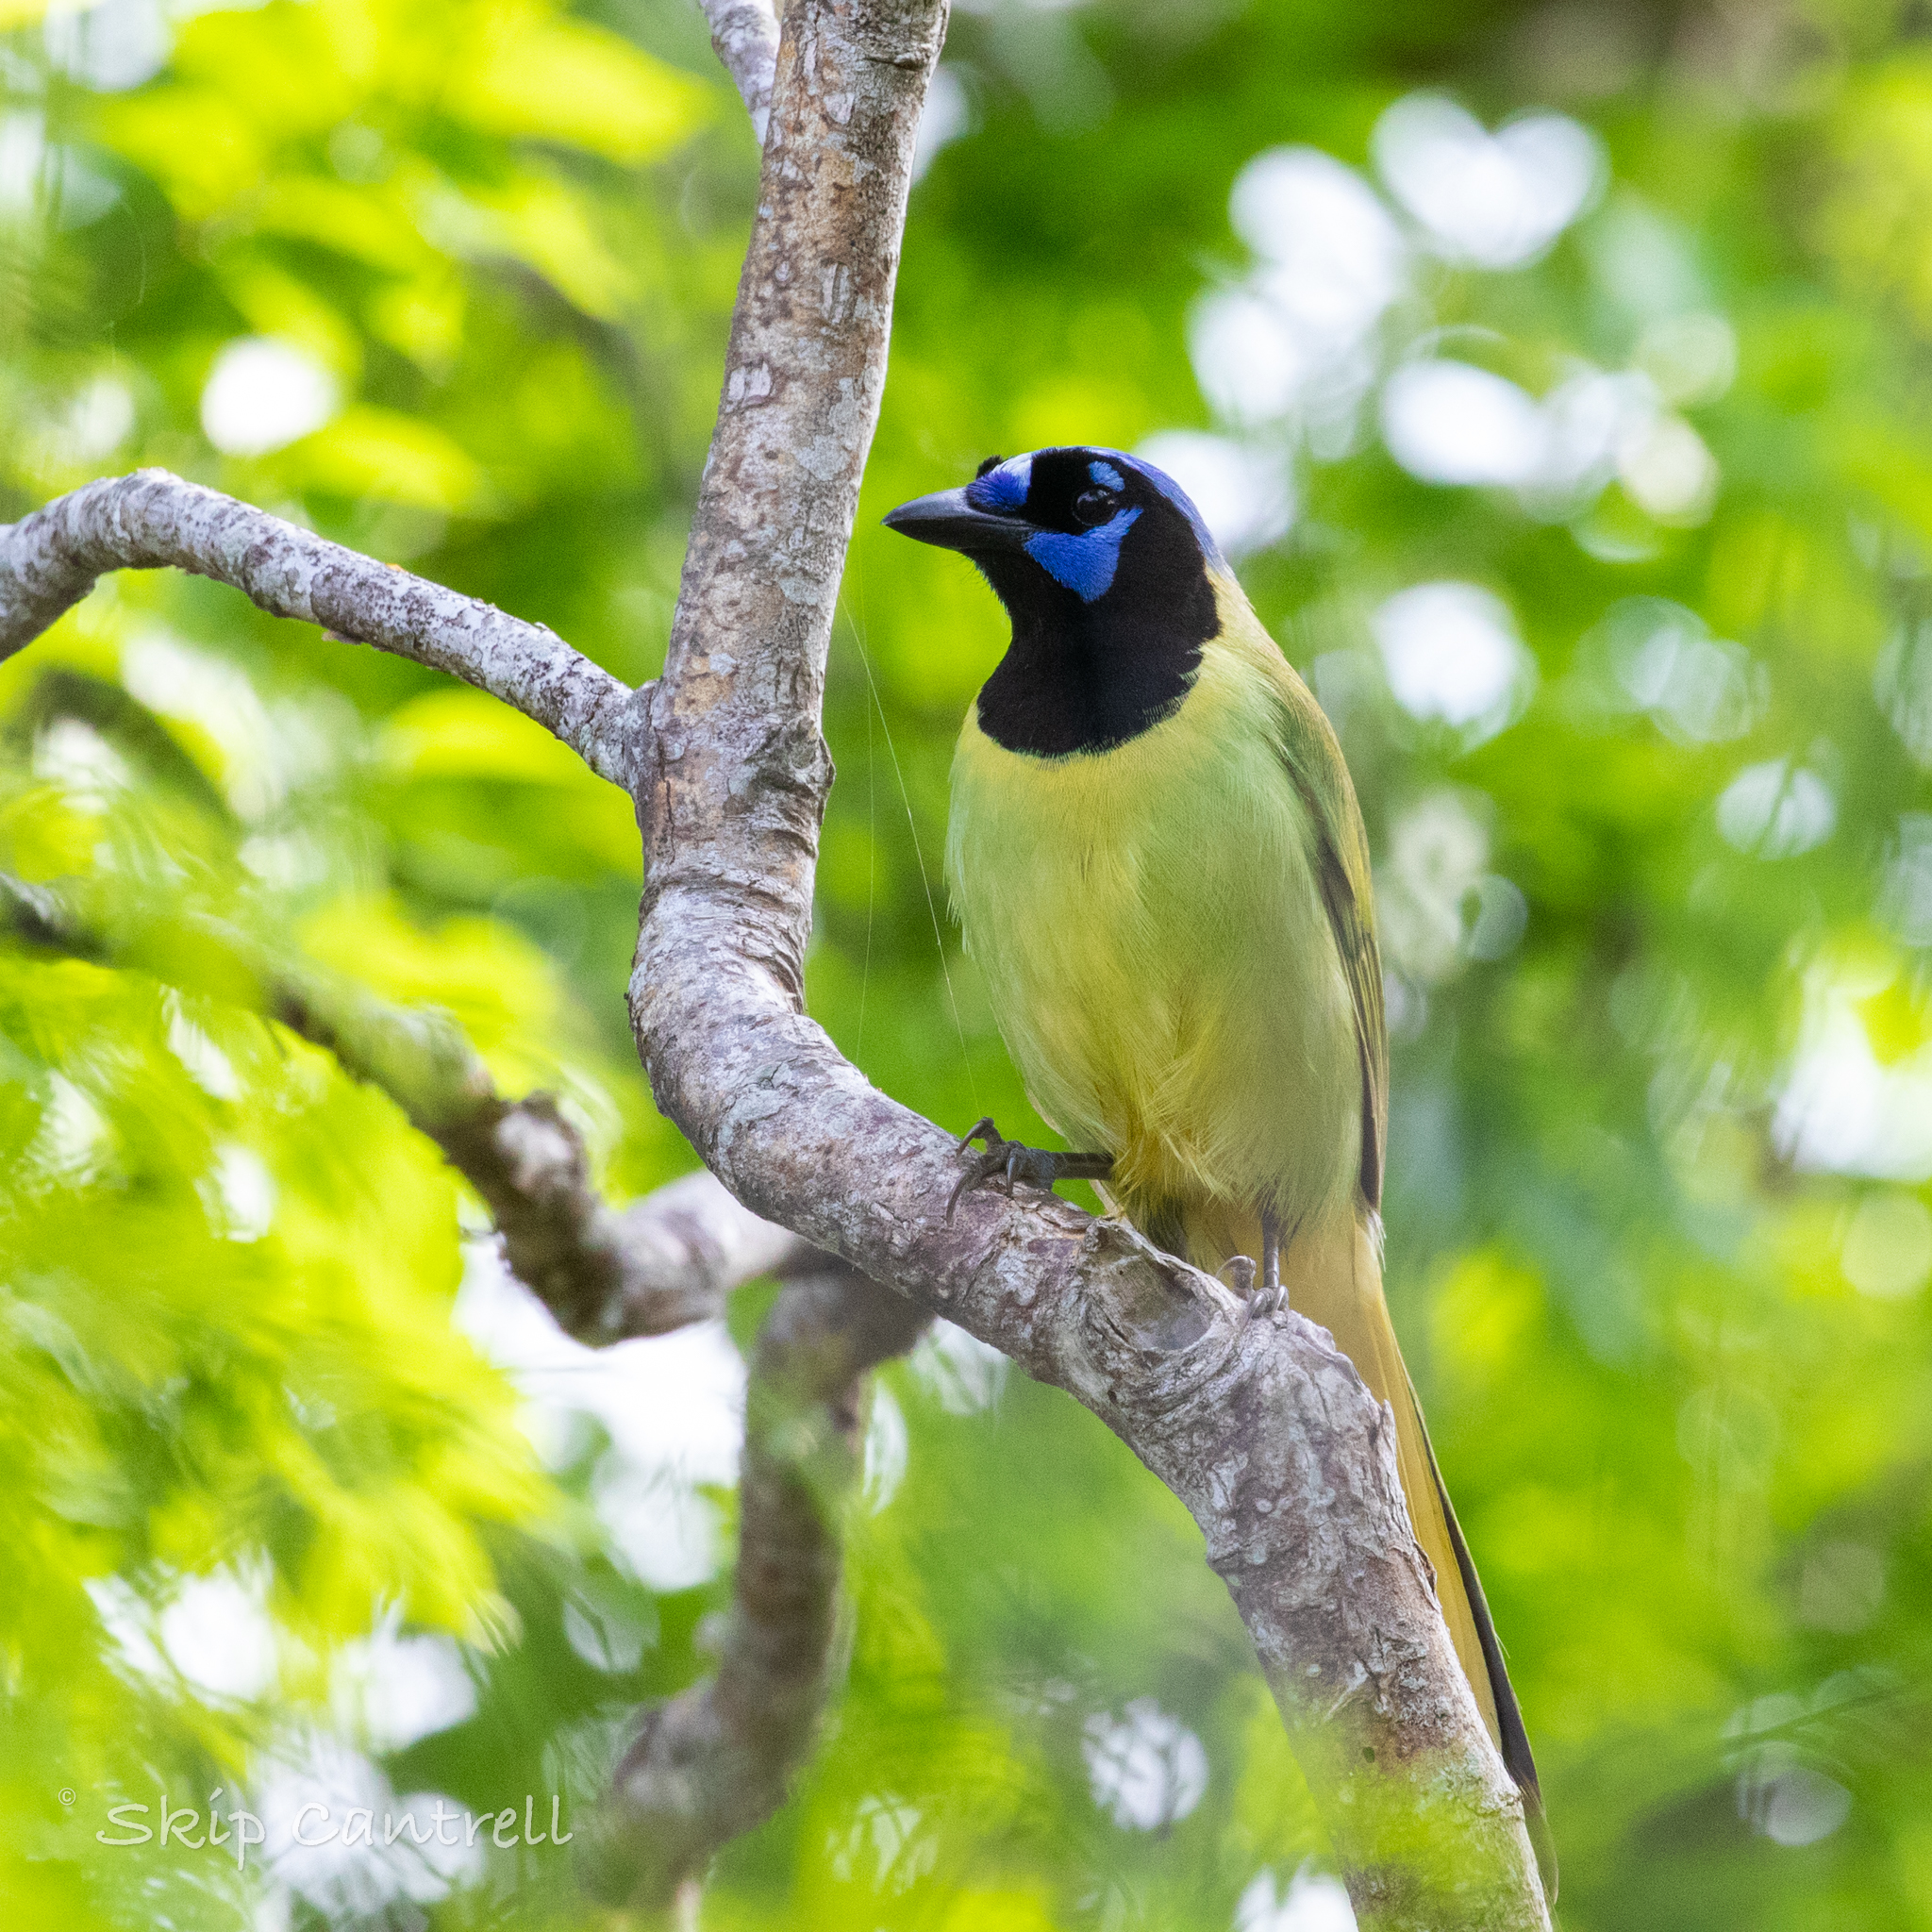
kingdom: Animalia
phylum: Chordata
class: Aves
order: Passeriformes
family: Corvidae
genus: Cyanocorax
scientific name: Cyanocorax yncas
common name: Green jay
